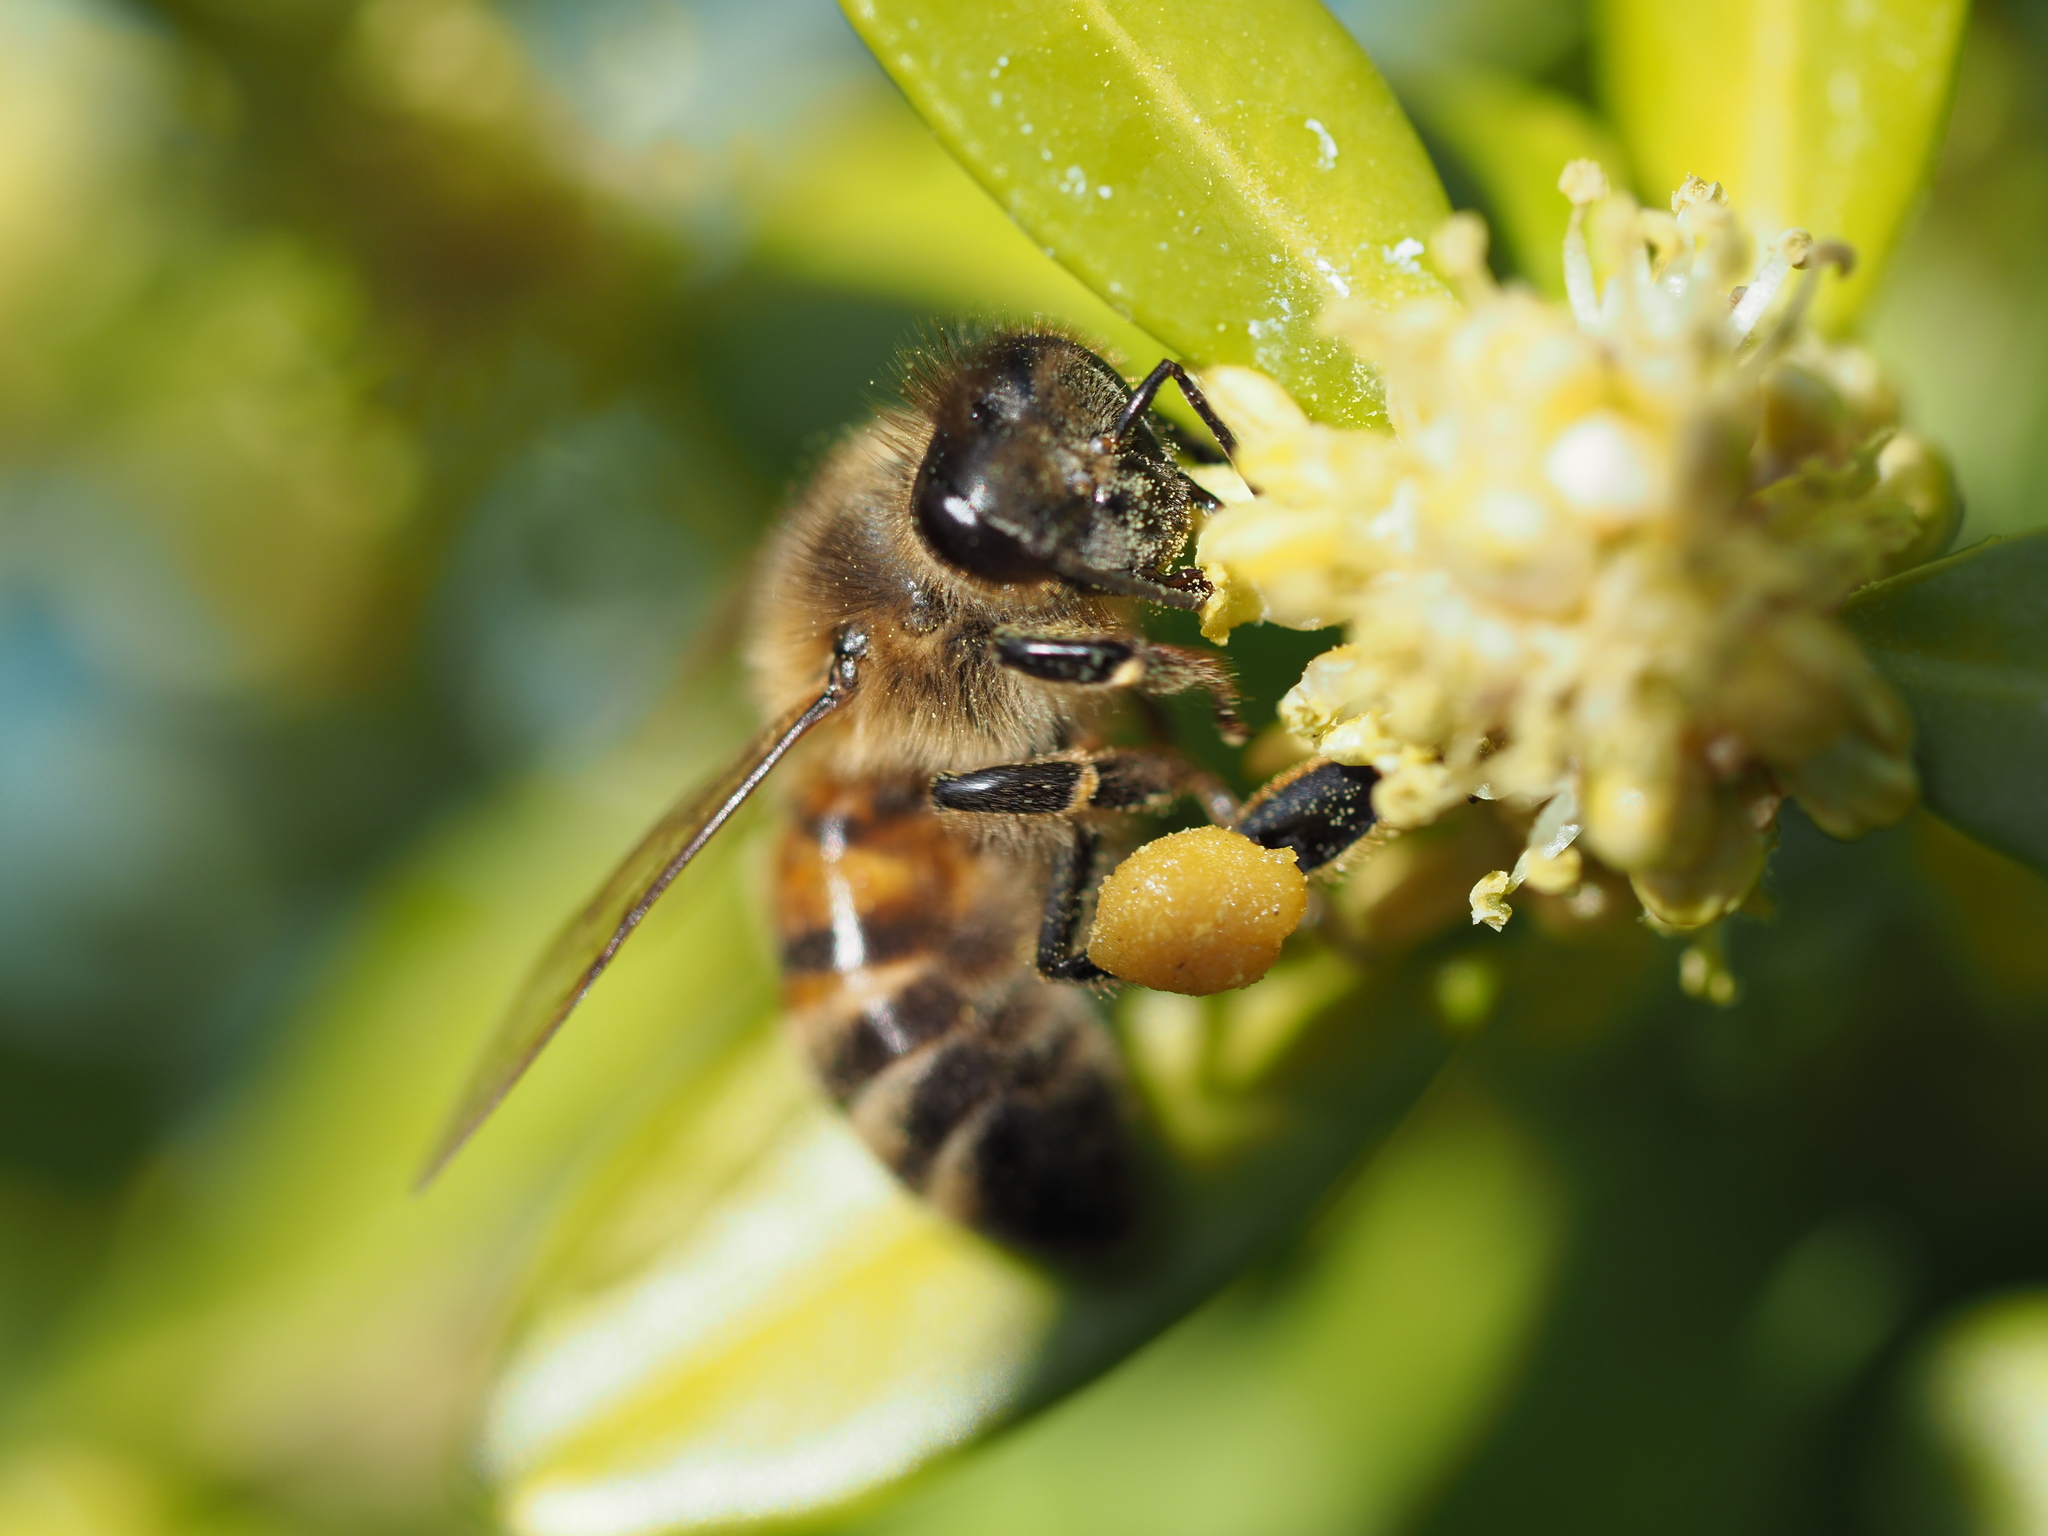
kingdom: Animalia
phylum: Arthropoda
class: Insecta
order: Hymenoptera
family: Apidae
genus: Apis
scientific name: Apis mellifera
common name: Honey bee
